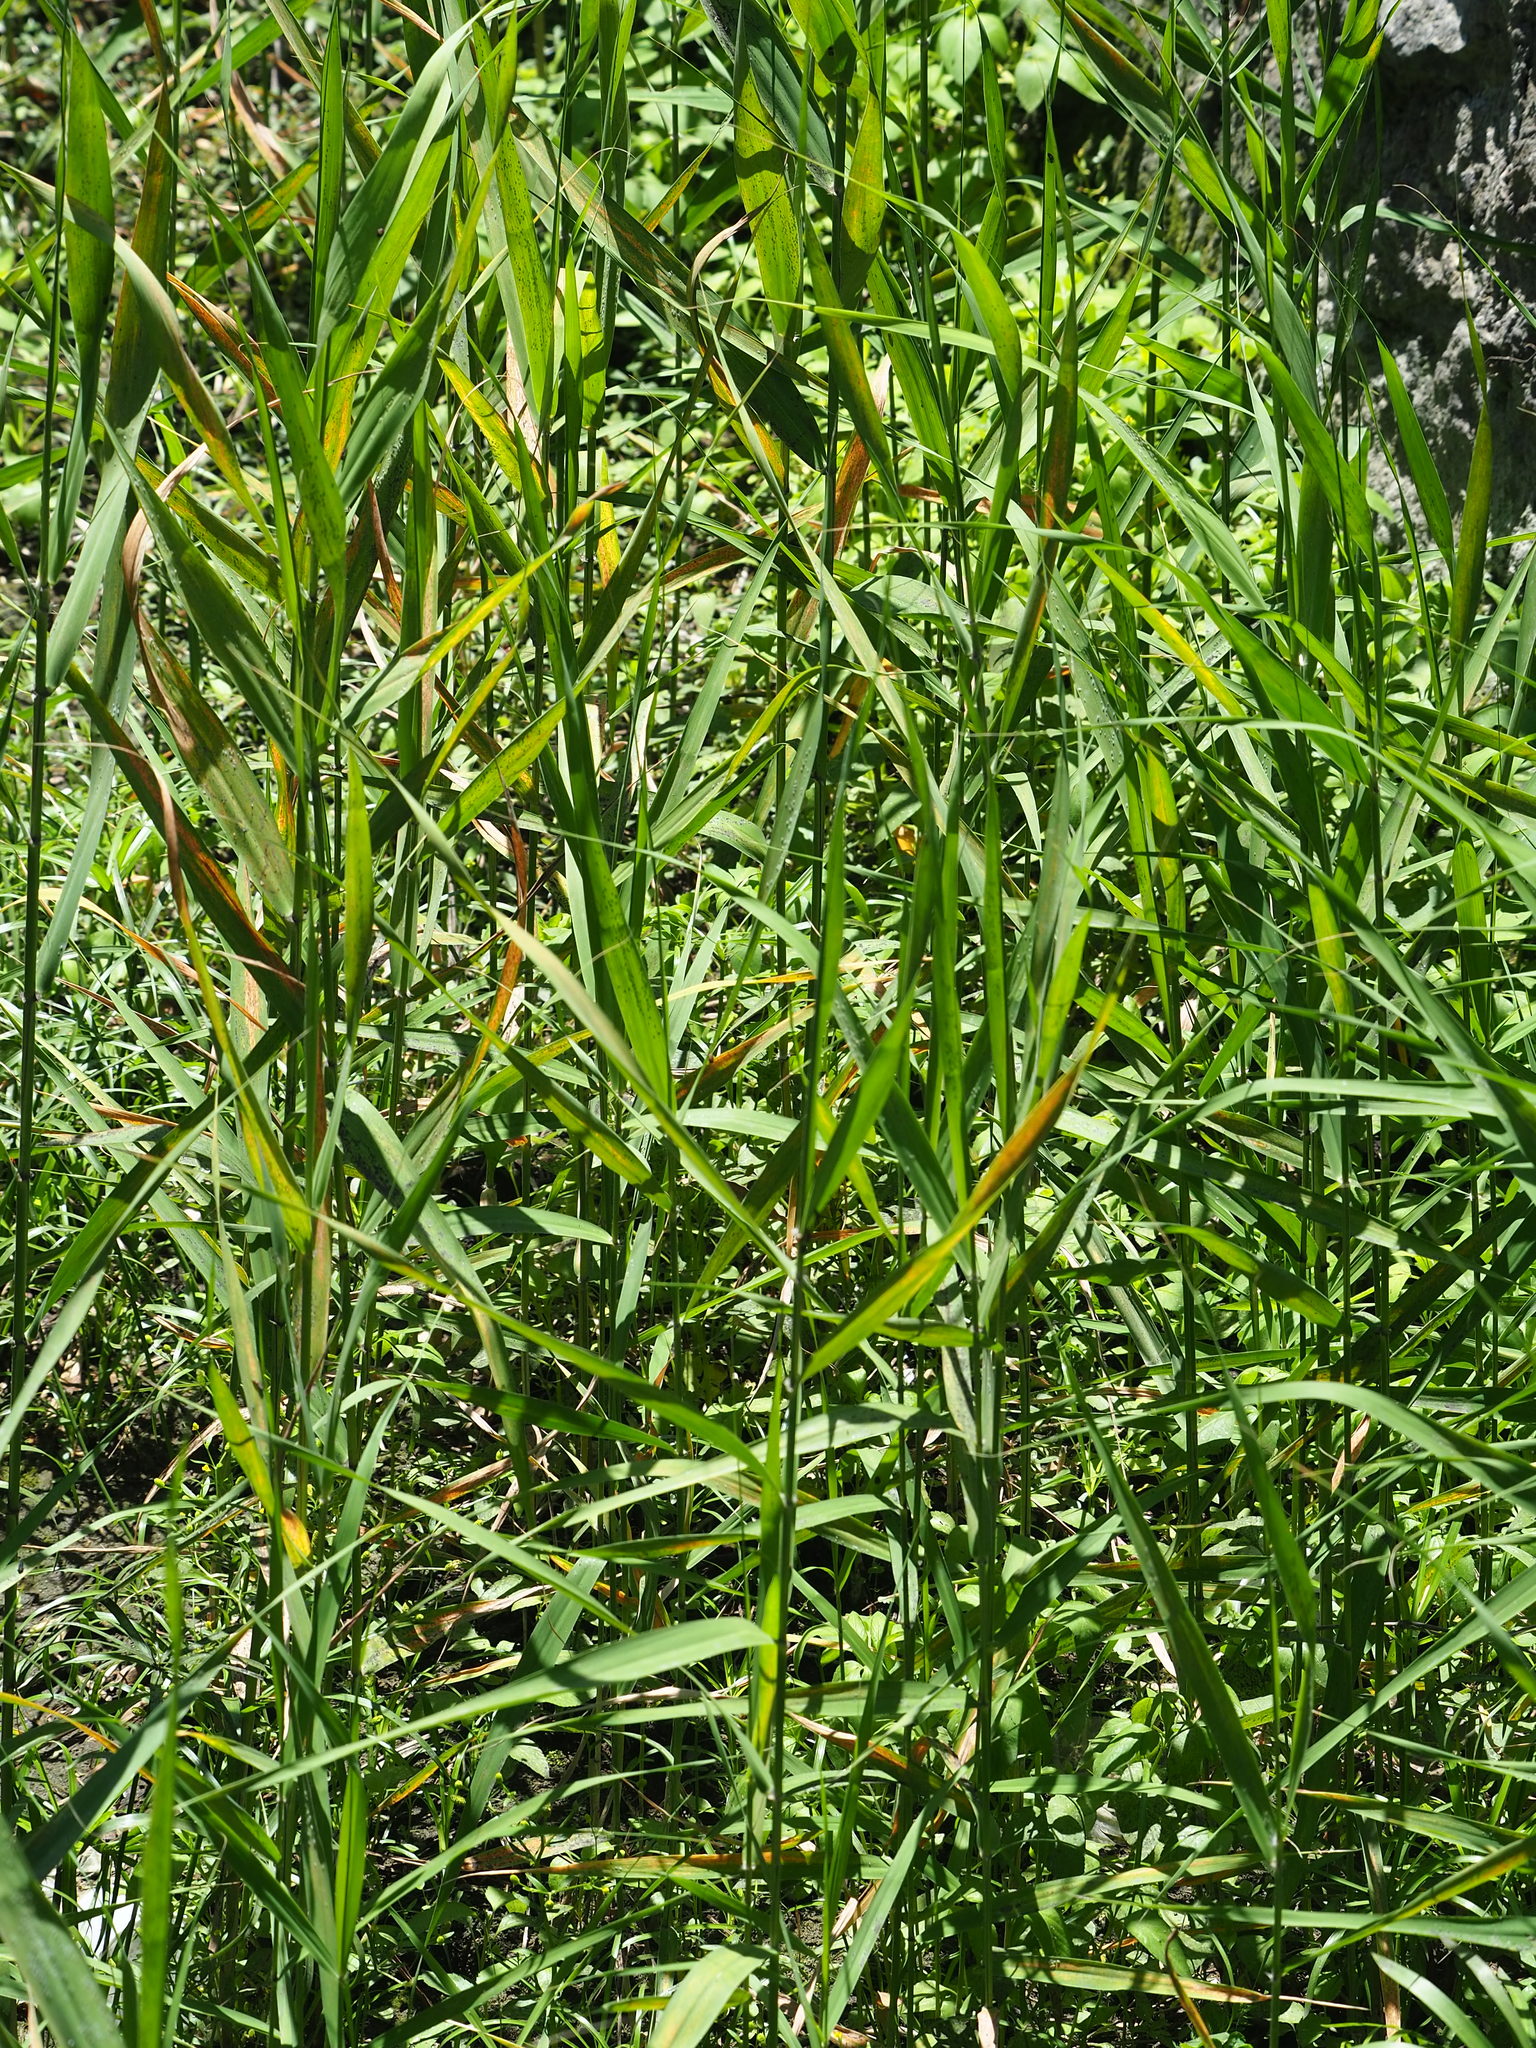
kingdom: Plantae
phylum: Tracheophyta
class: Liliopsida
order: Poales
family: Poaceae
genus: Phragmites
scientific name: Phragmites australis
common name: Common reed
